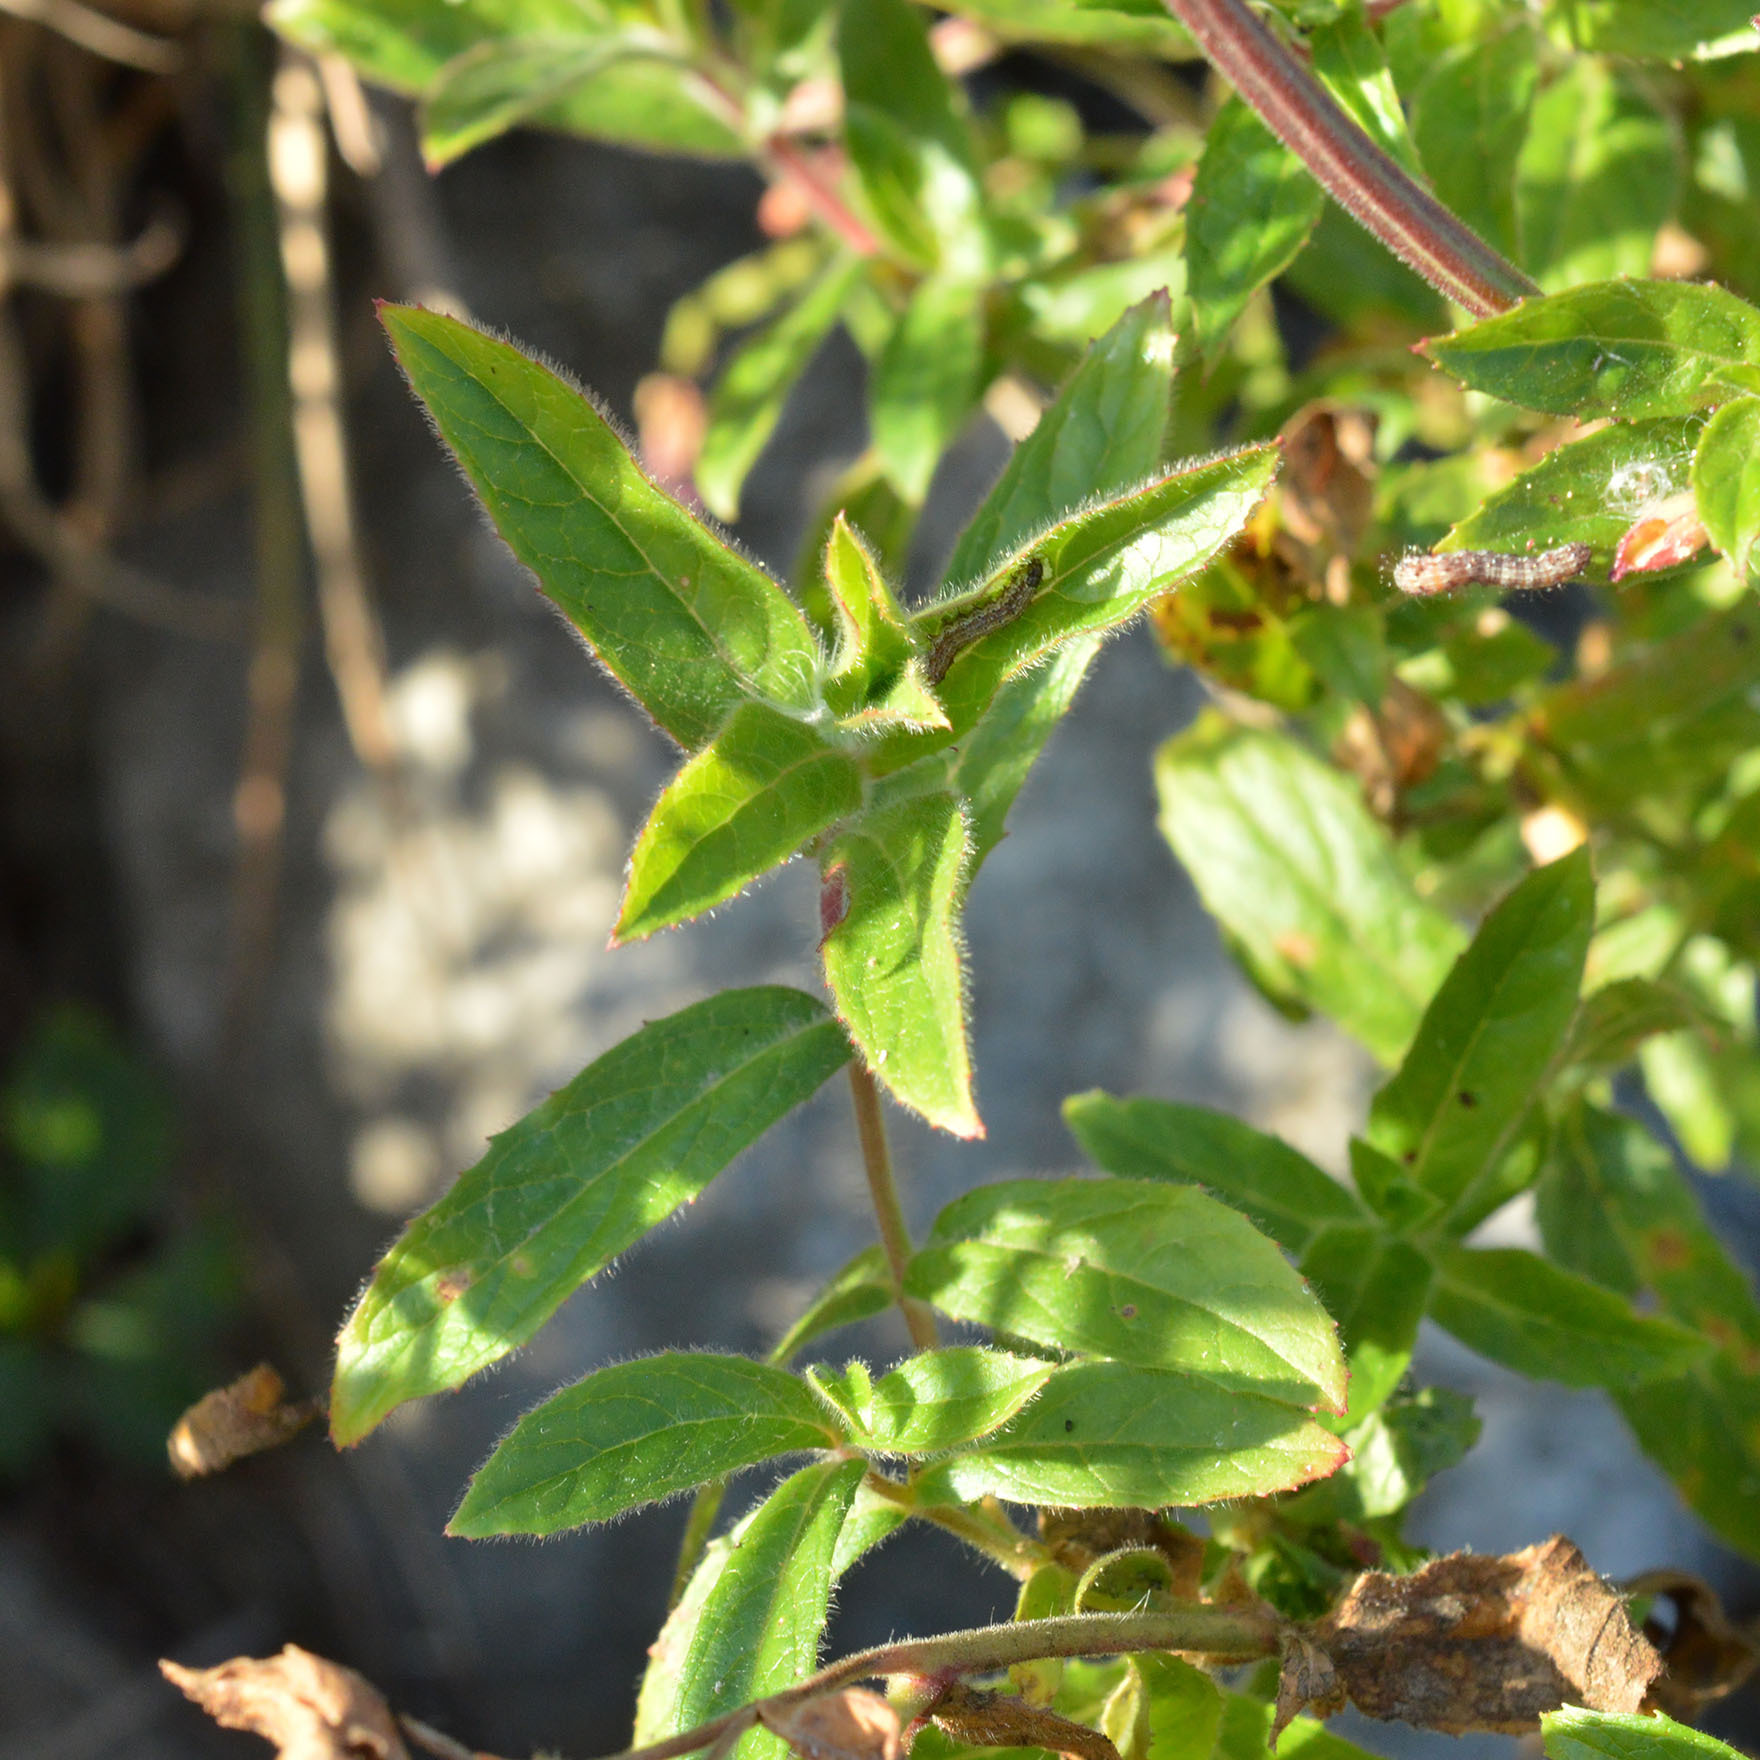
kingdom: Plantae
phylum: Tracheophyta
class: Magnoliopsida
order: Myrtales
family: Onagraceae
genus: Epilobium
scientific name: Epilobium hirsutum
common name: Great willowherb
